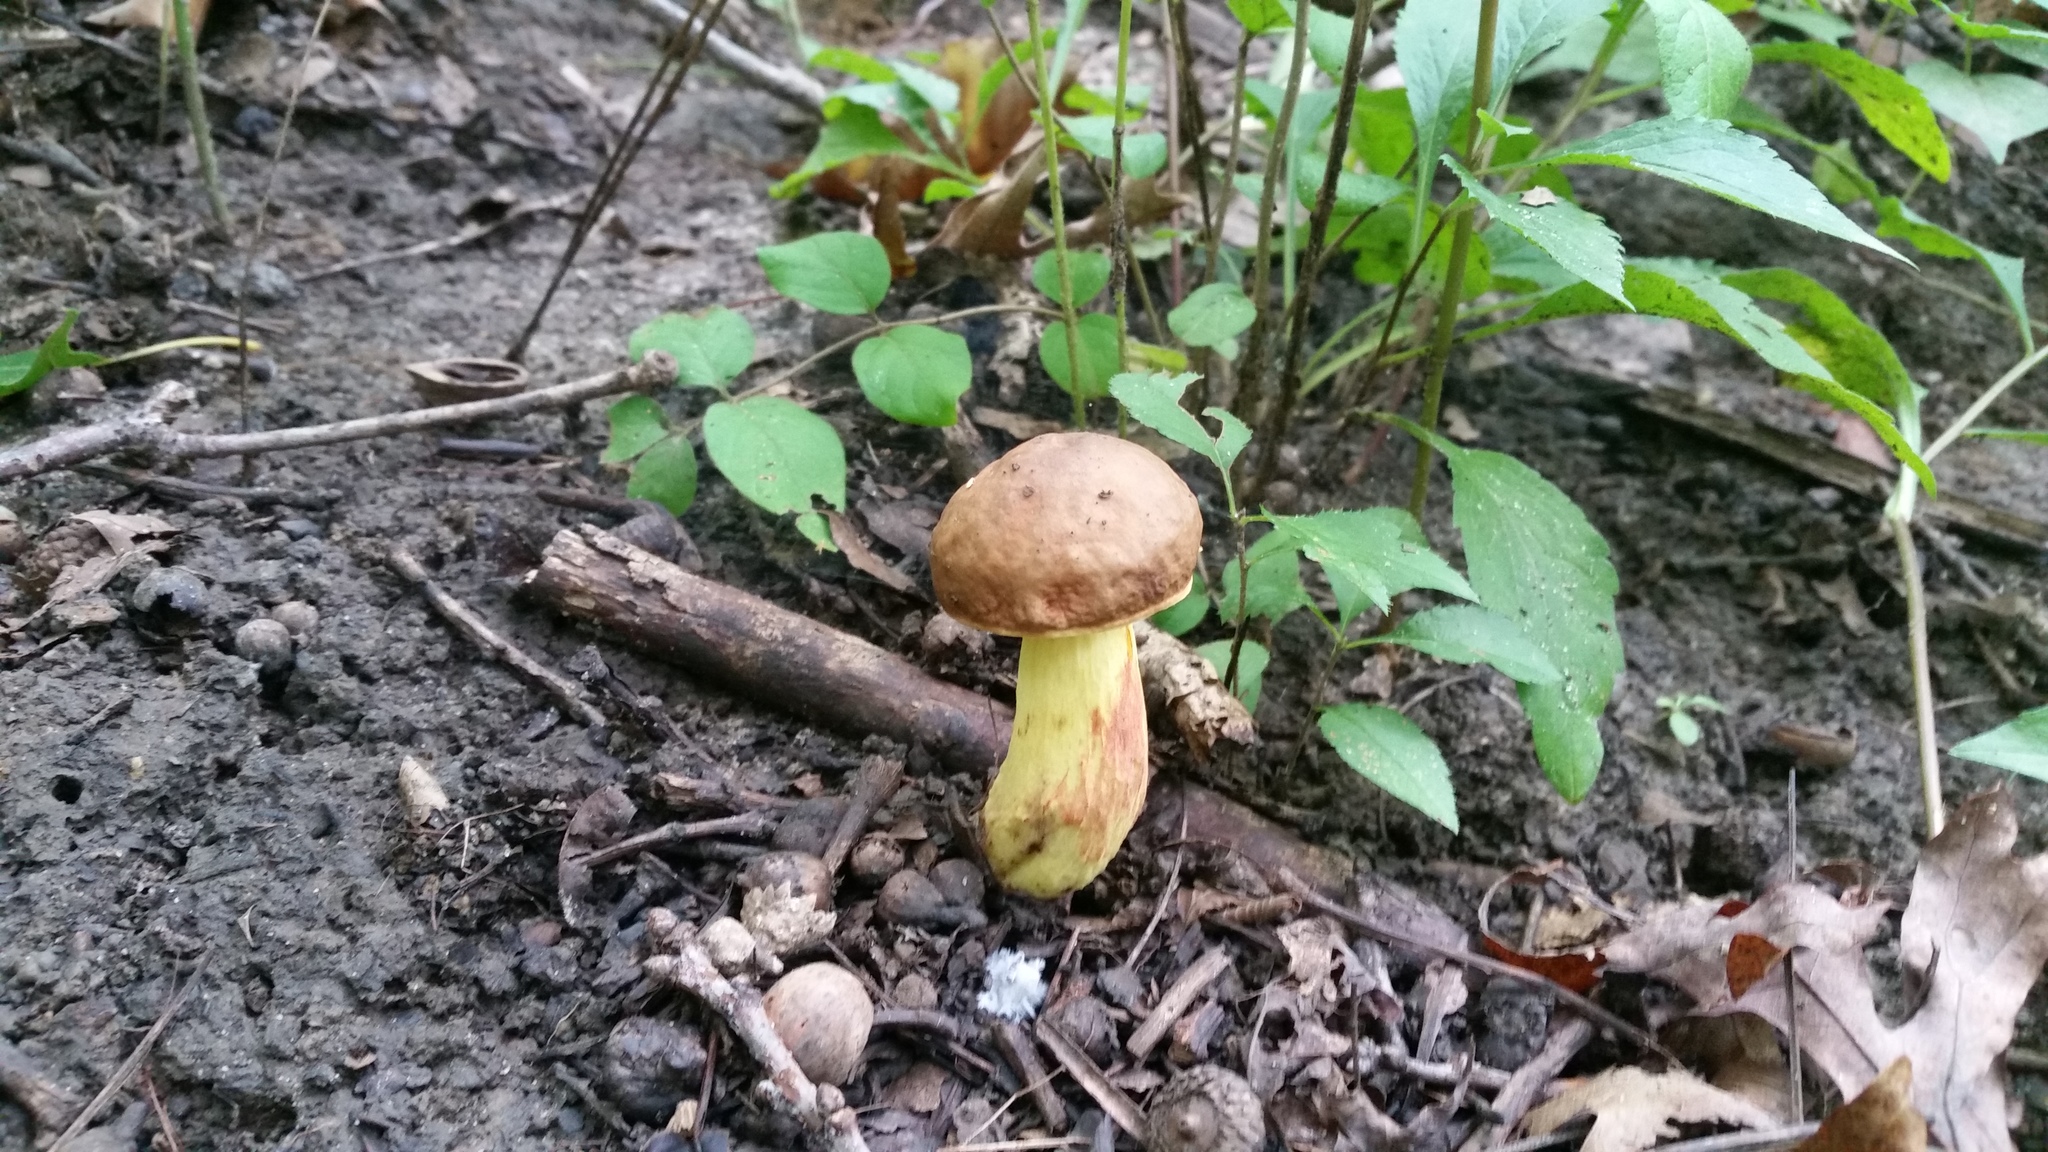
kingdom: Fungi
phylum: Basidiomycota
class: Agaricomycetes
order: Boletales
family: Boletaceae
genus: Hemileccinum
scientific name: Hemileccinum subglabripes
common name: Smoothish-stemmed bolete
